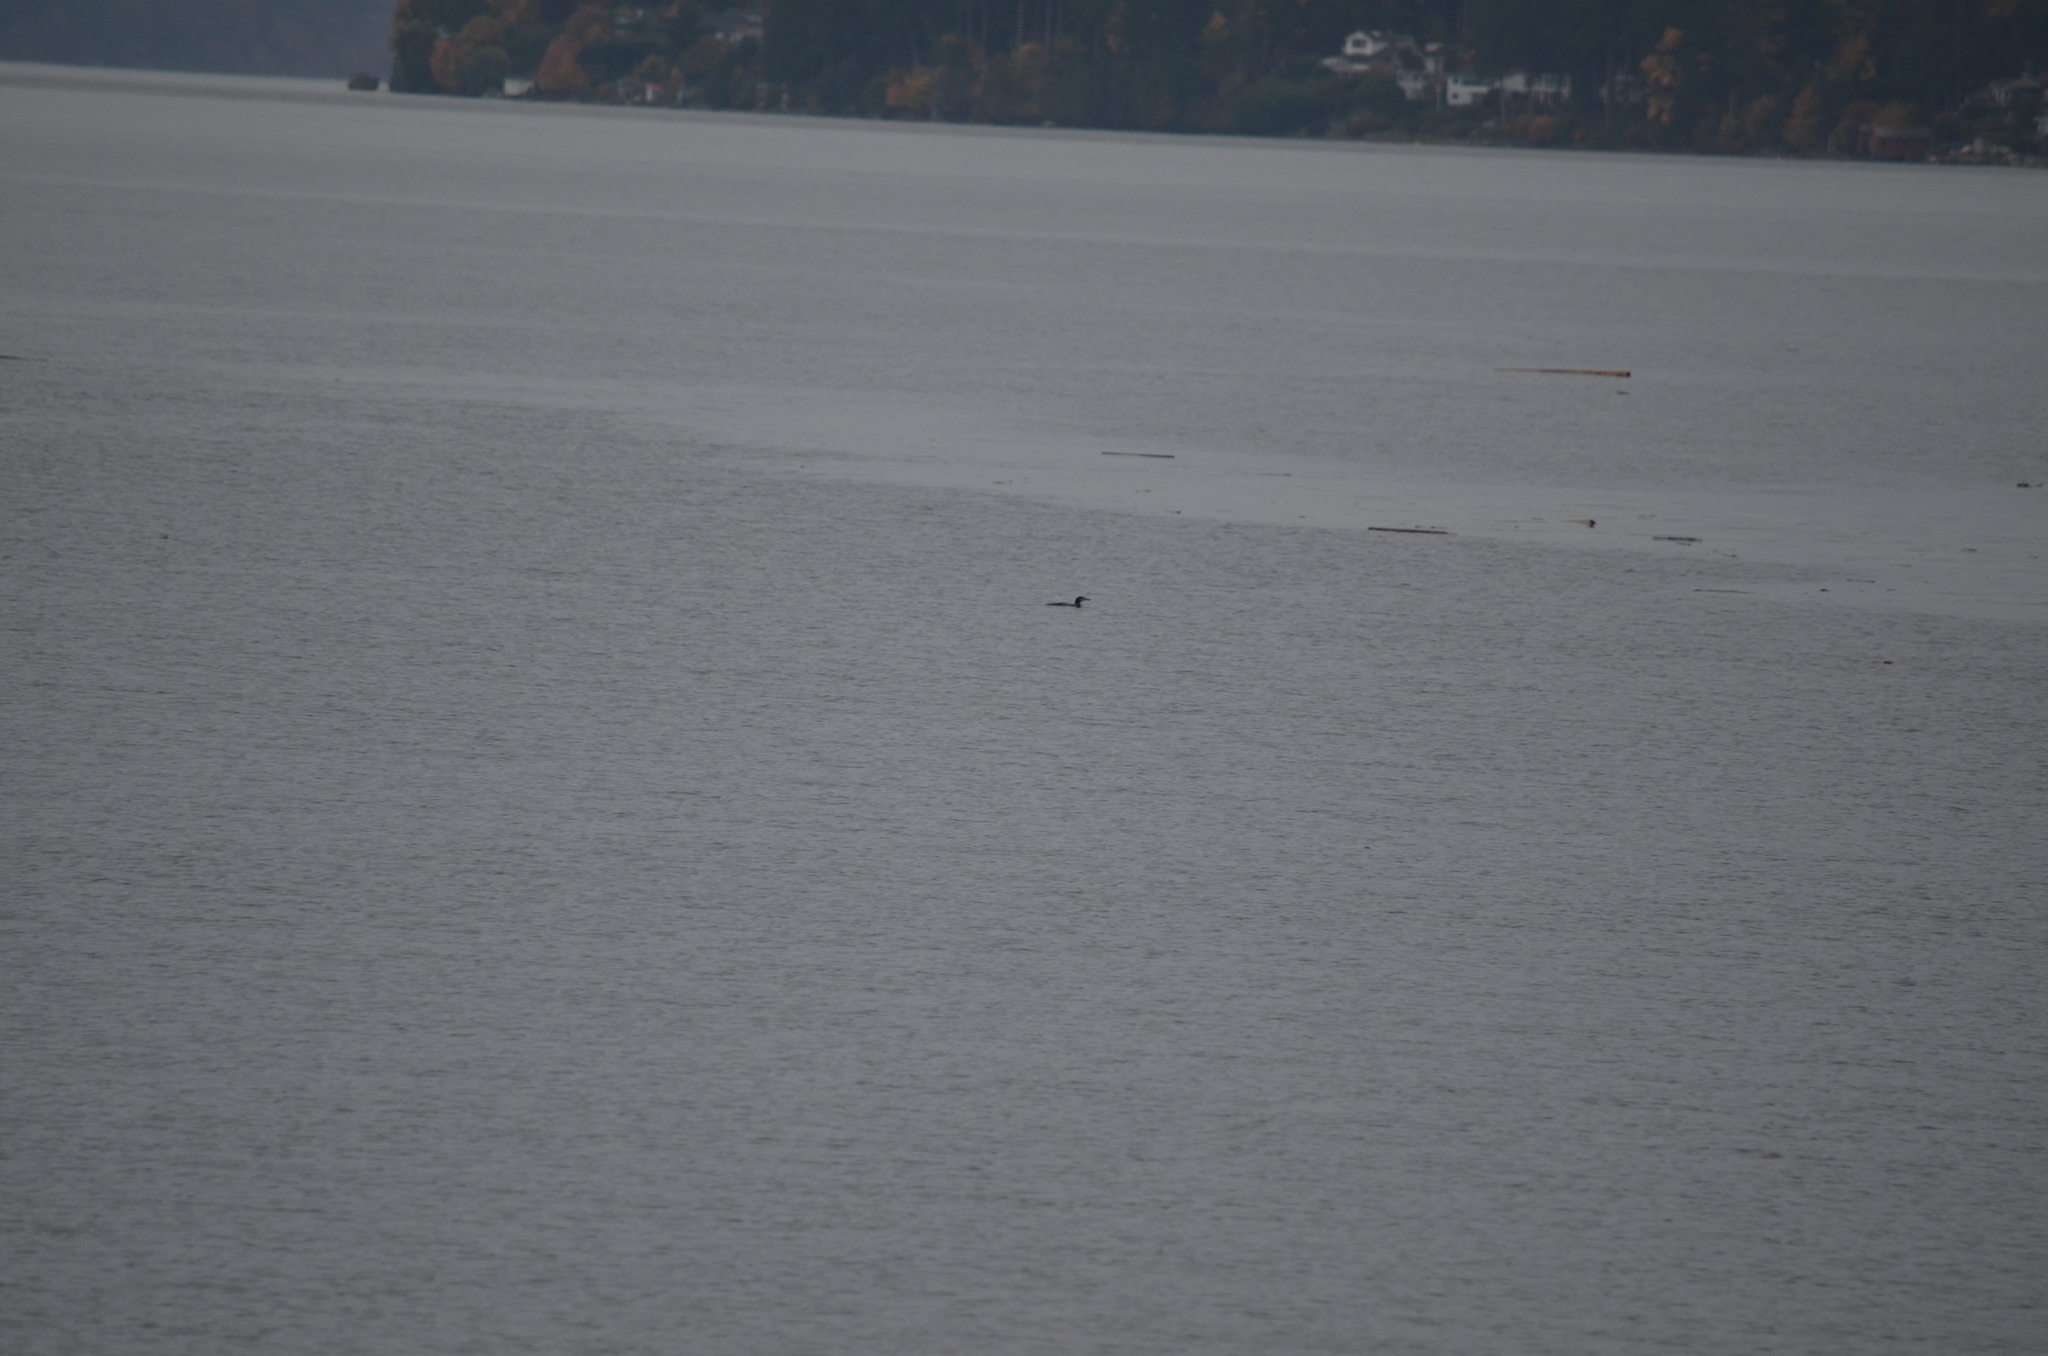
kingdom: Animalia
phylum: Chordata
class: Aves
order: Gaviiformes
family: Gaviidae
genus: Gavia
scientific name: Gavia immer
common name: Common loon
